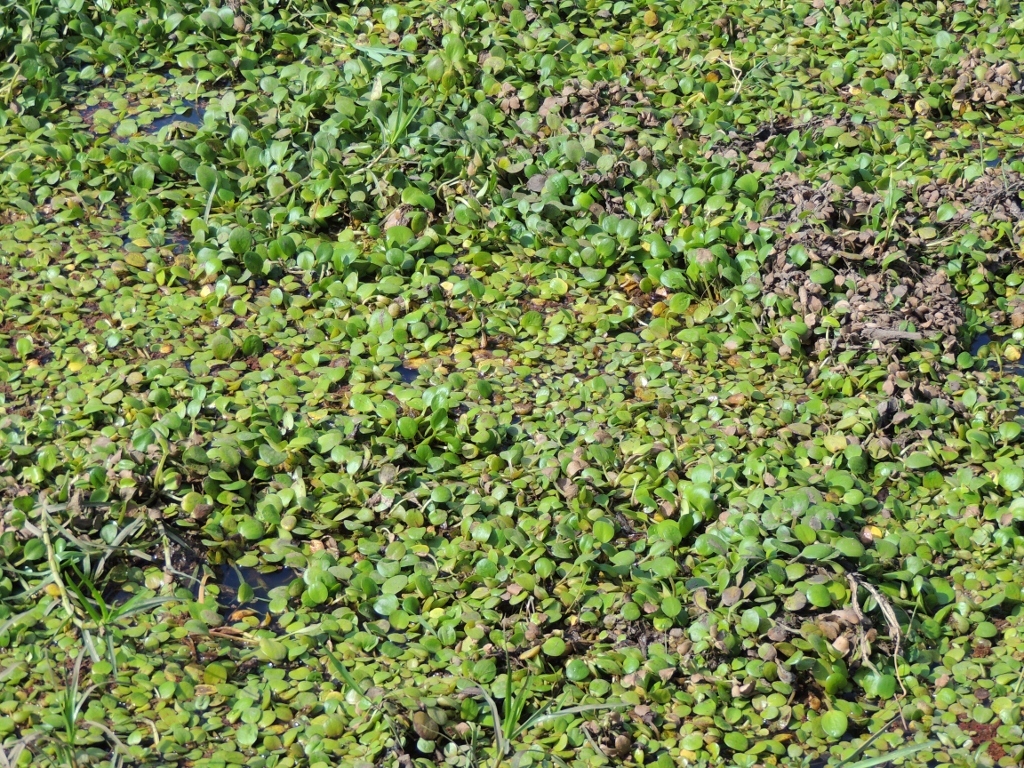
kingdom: Plantae
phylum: Tracheophyta
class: Liliopsida
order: Alismatales
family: Hydrocharitaceae
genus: Hydrocharis
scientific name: Hydrocharis laevigata
